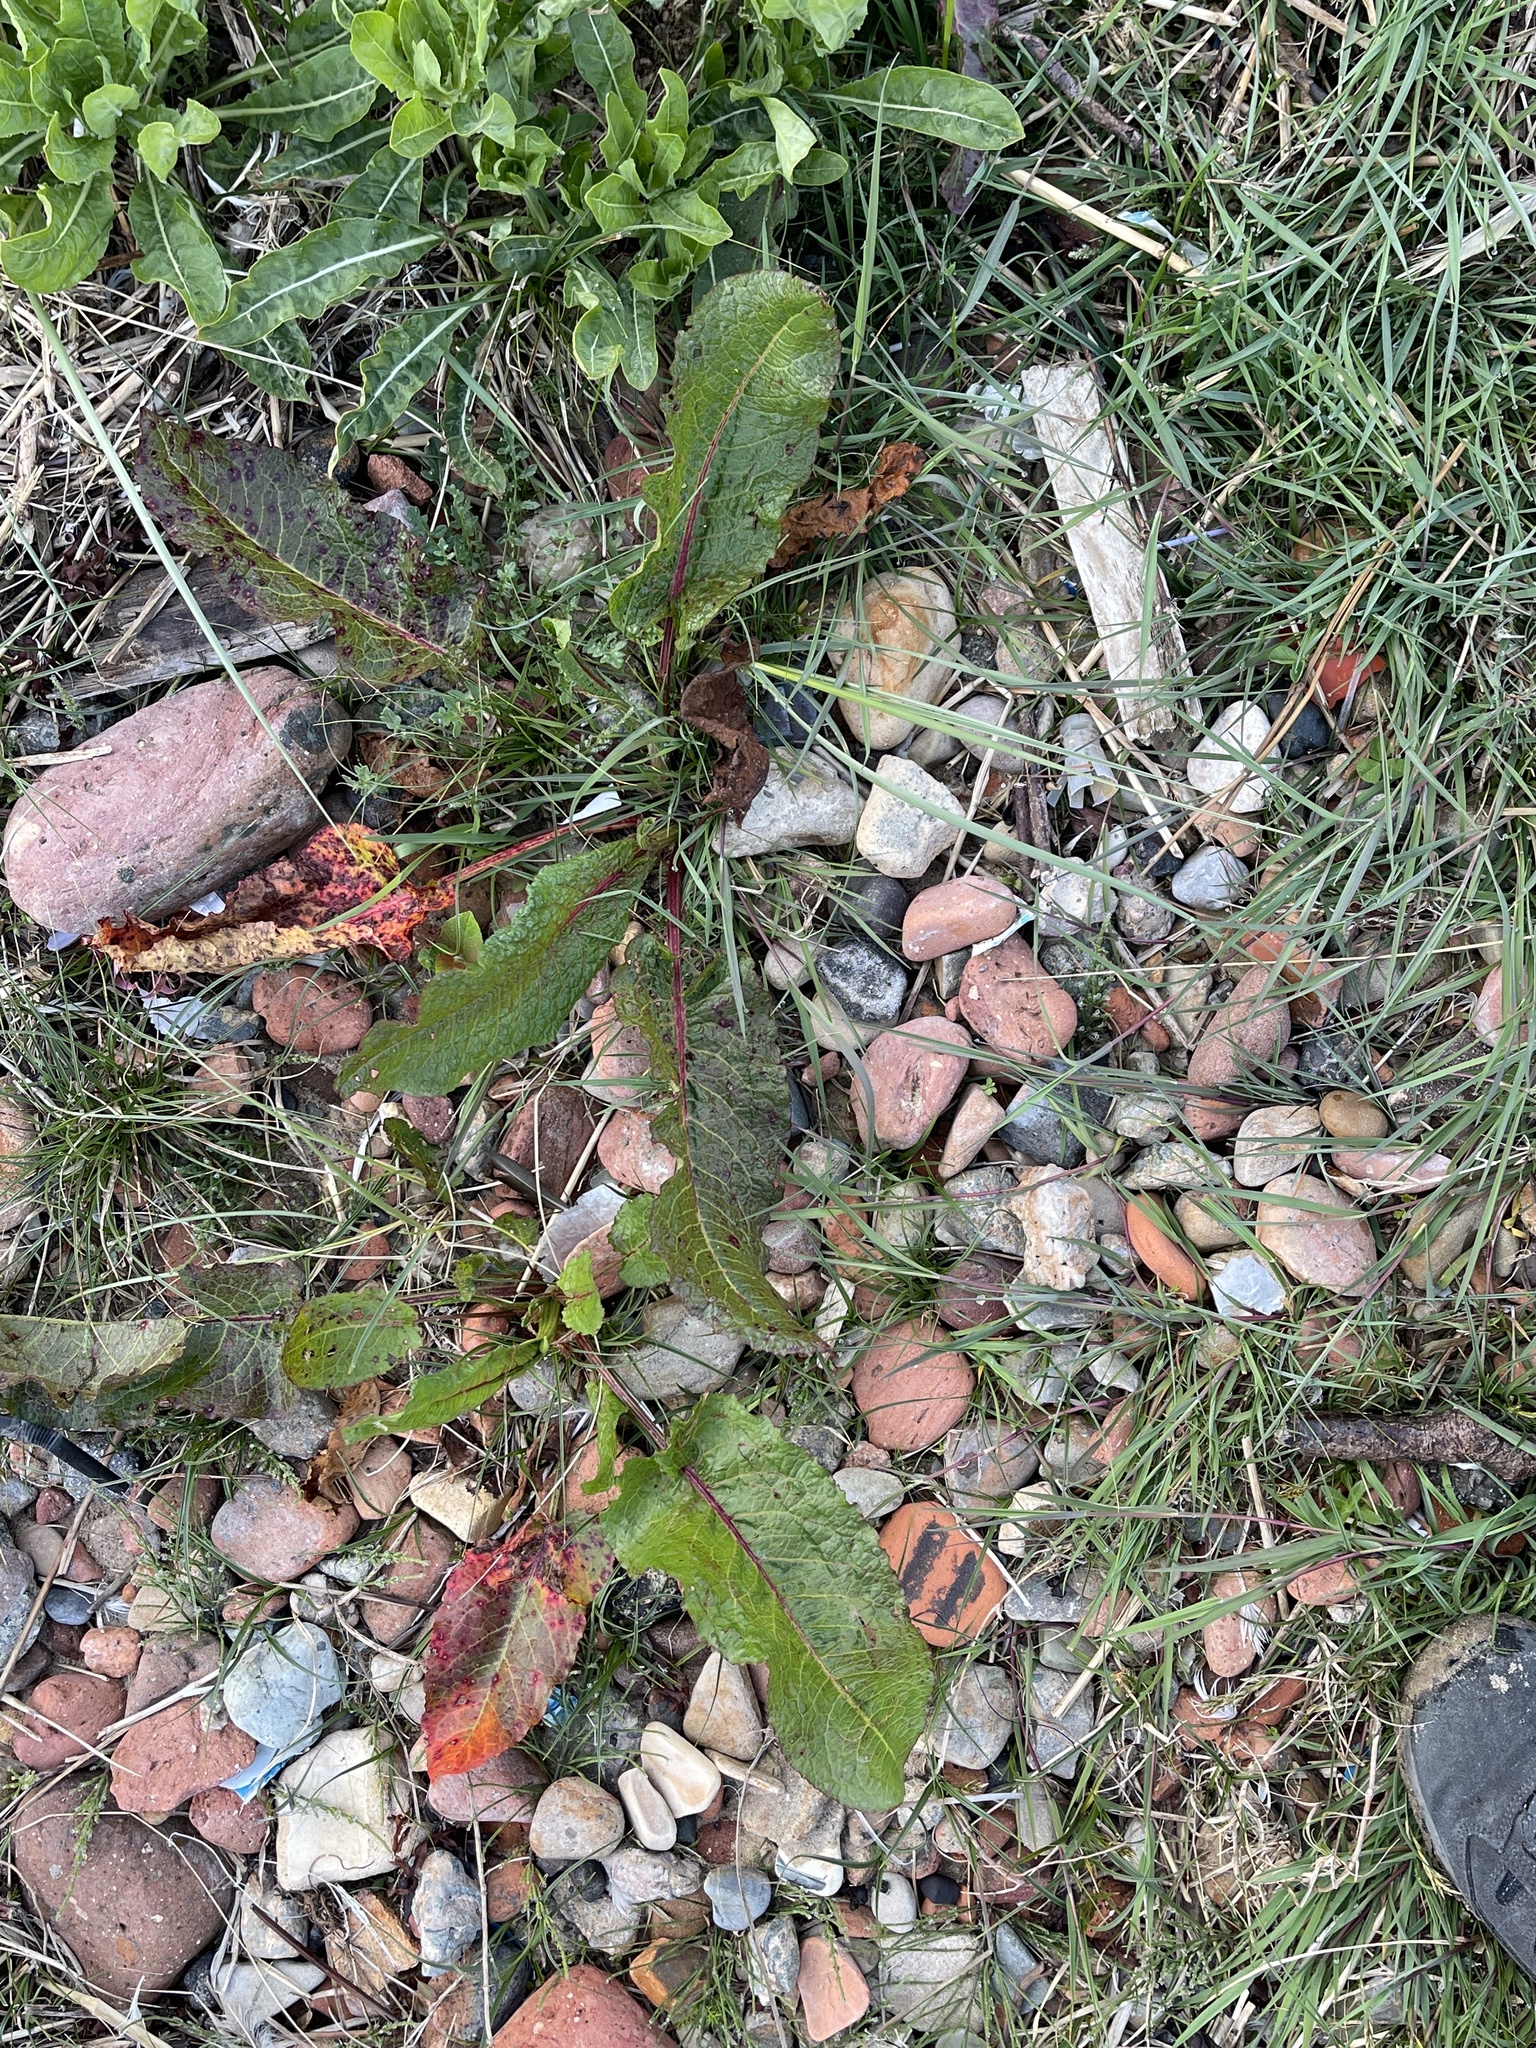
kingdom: Plantae
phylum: Tracheophyta
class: Magnoliopsida
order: Caryophyllales
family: Polygonaceae
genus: Rumex
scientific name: Rumex obtusifolius
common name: Bitter dock
